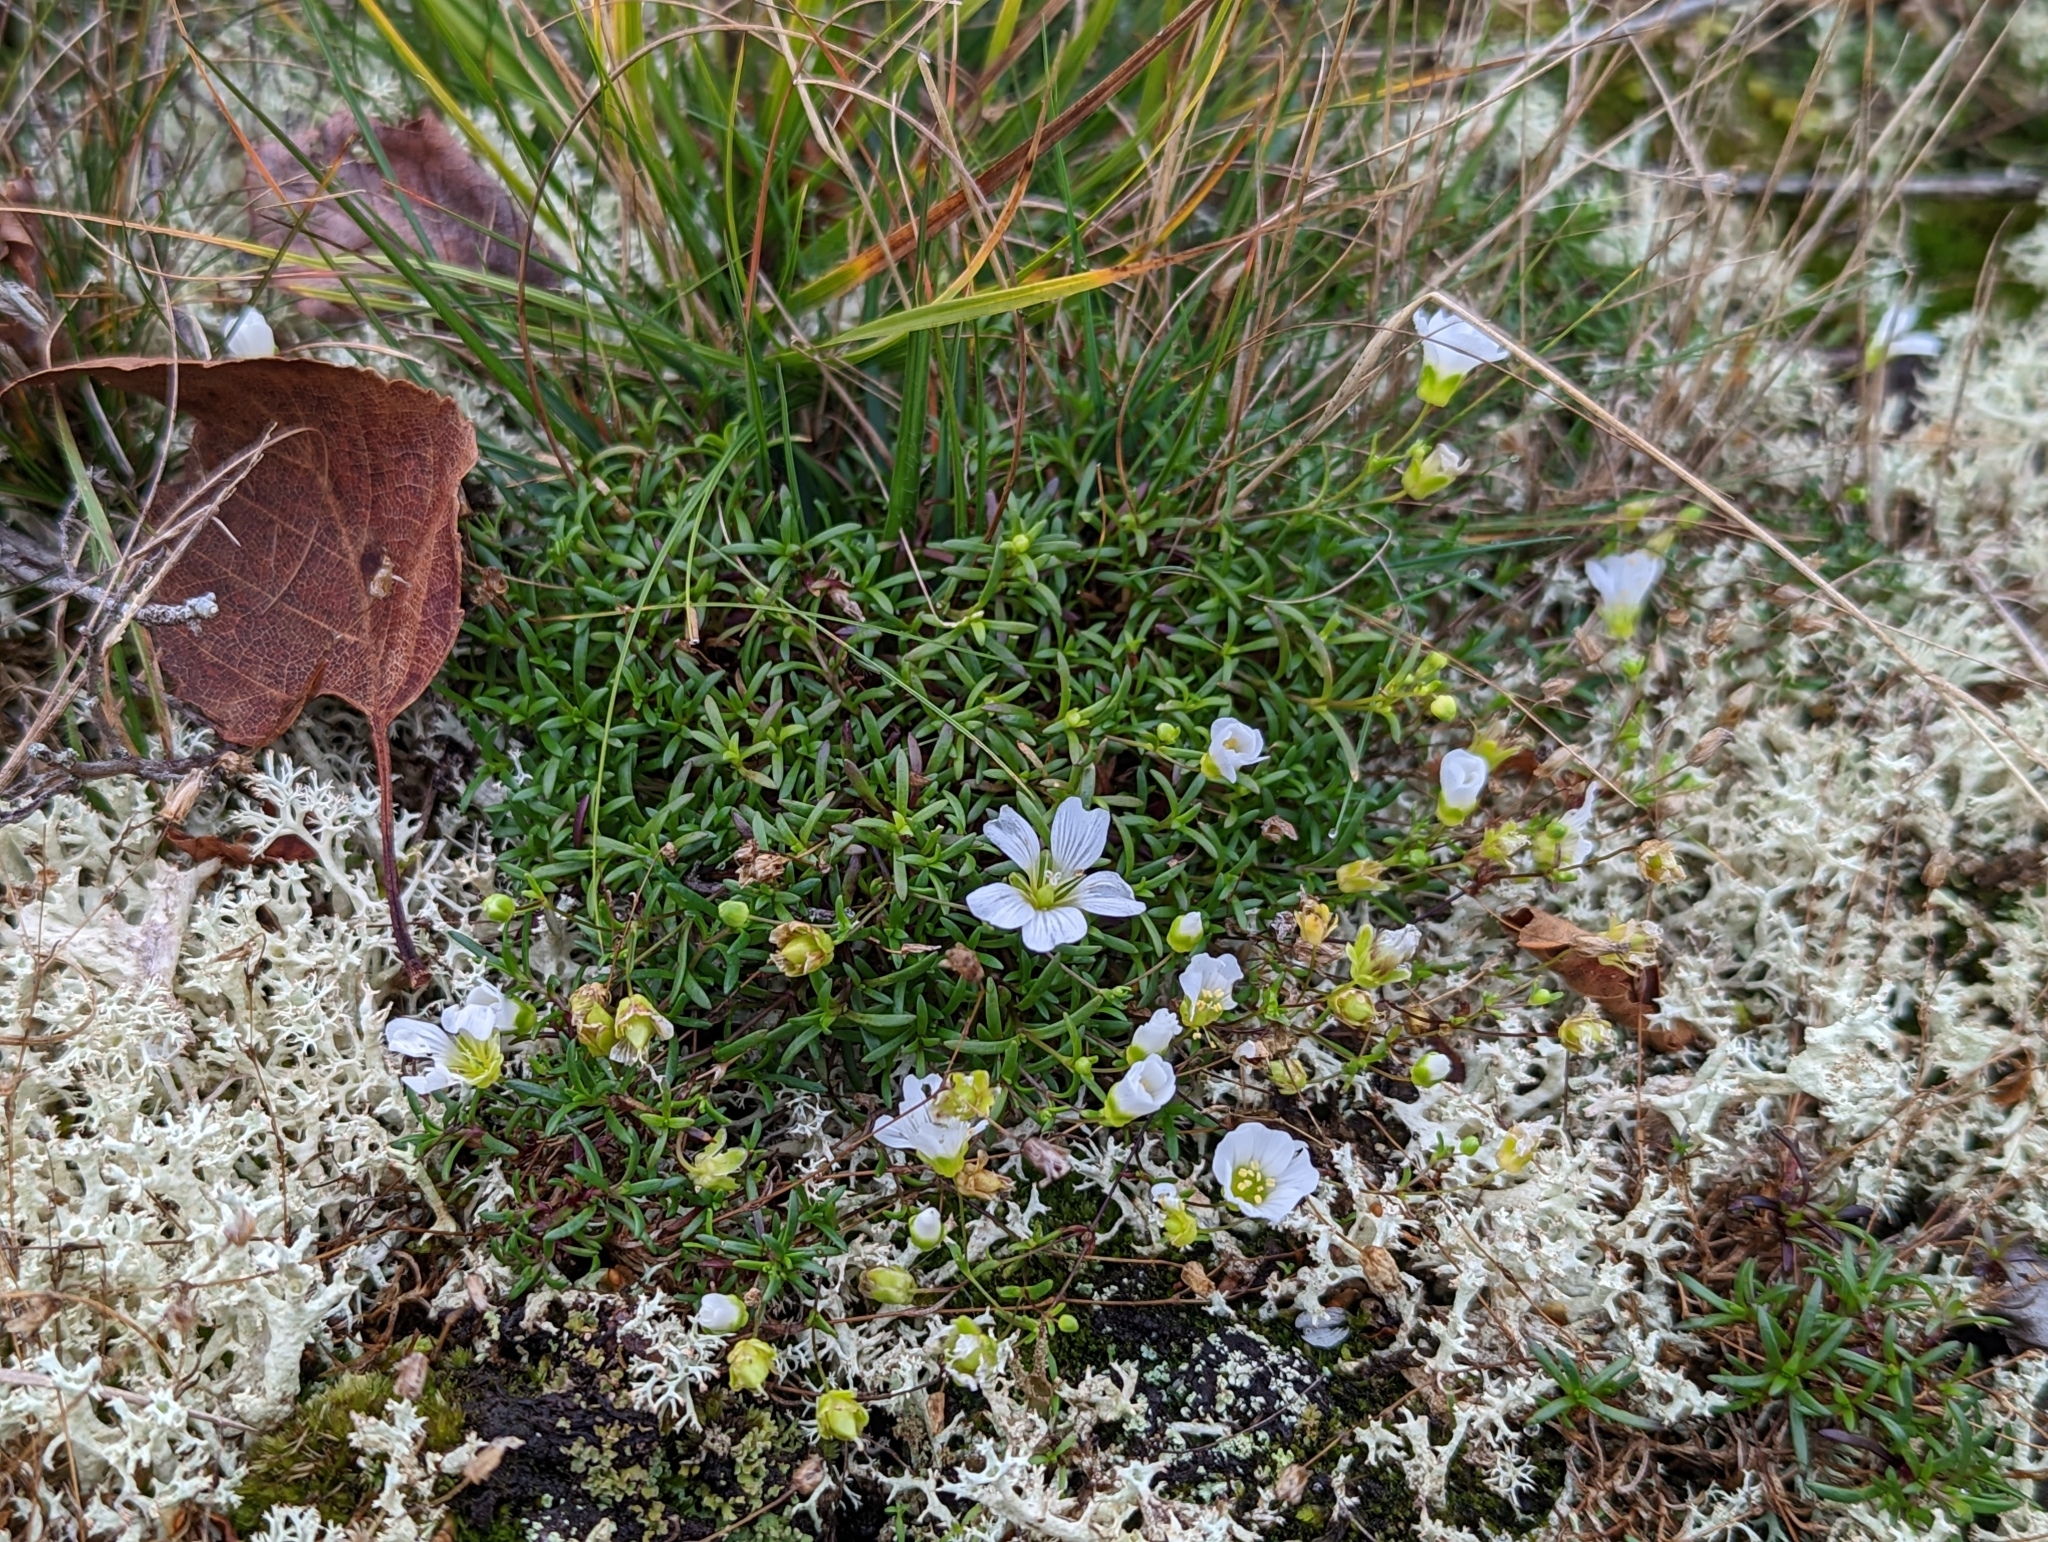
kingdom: Plantae
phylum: Tracheophyta
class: Magnoliopsida
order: Caryophyllales
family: Caryophyllaceae
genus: Geocarpon
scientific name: Geocarpon groenlandicum
